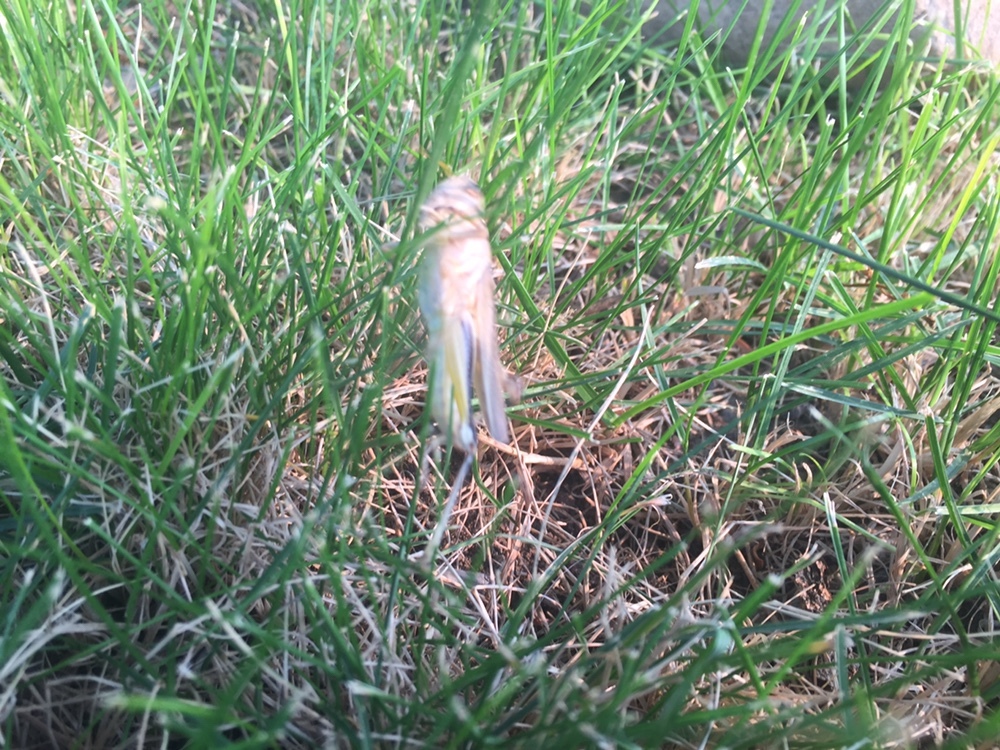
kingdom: Animalia
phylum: Arthropoda
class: Insecta
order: Orthoptera
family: Acrididae
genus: Melanoplus
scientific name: Melanoplus bivittatus
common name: Two-striped grasshopper
